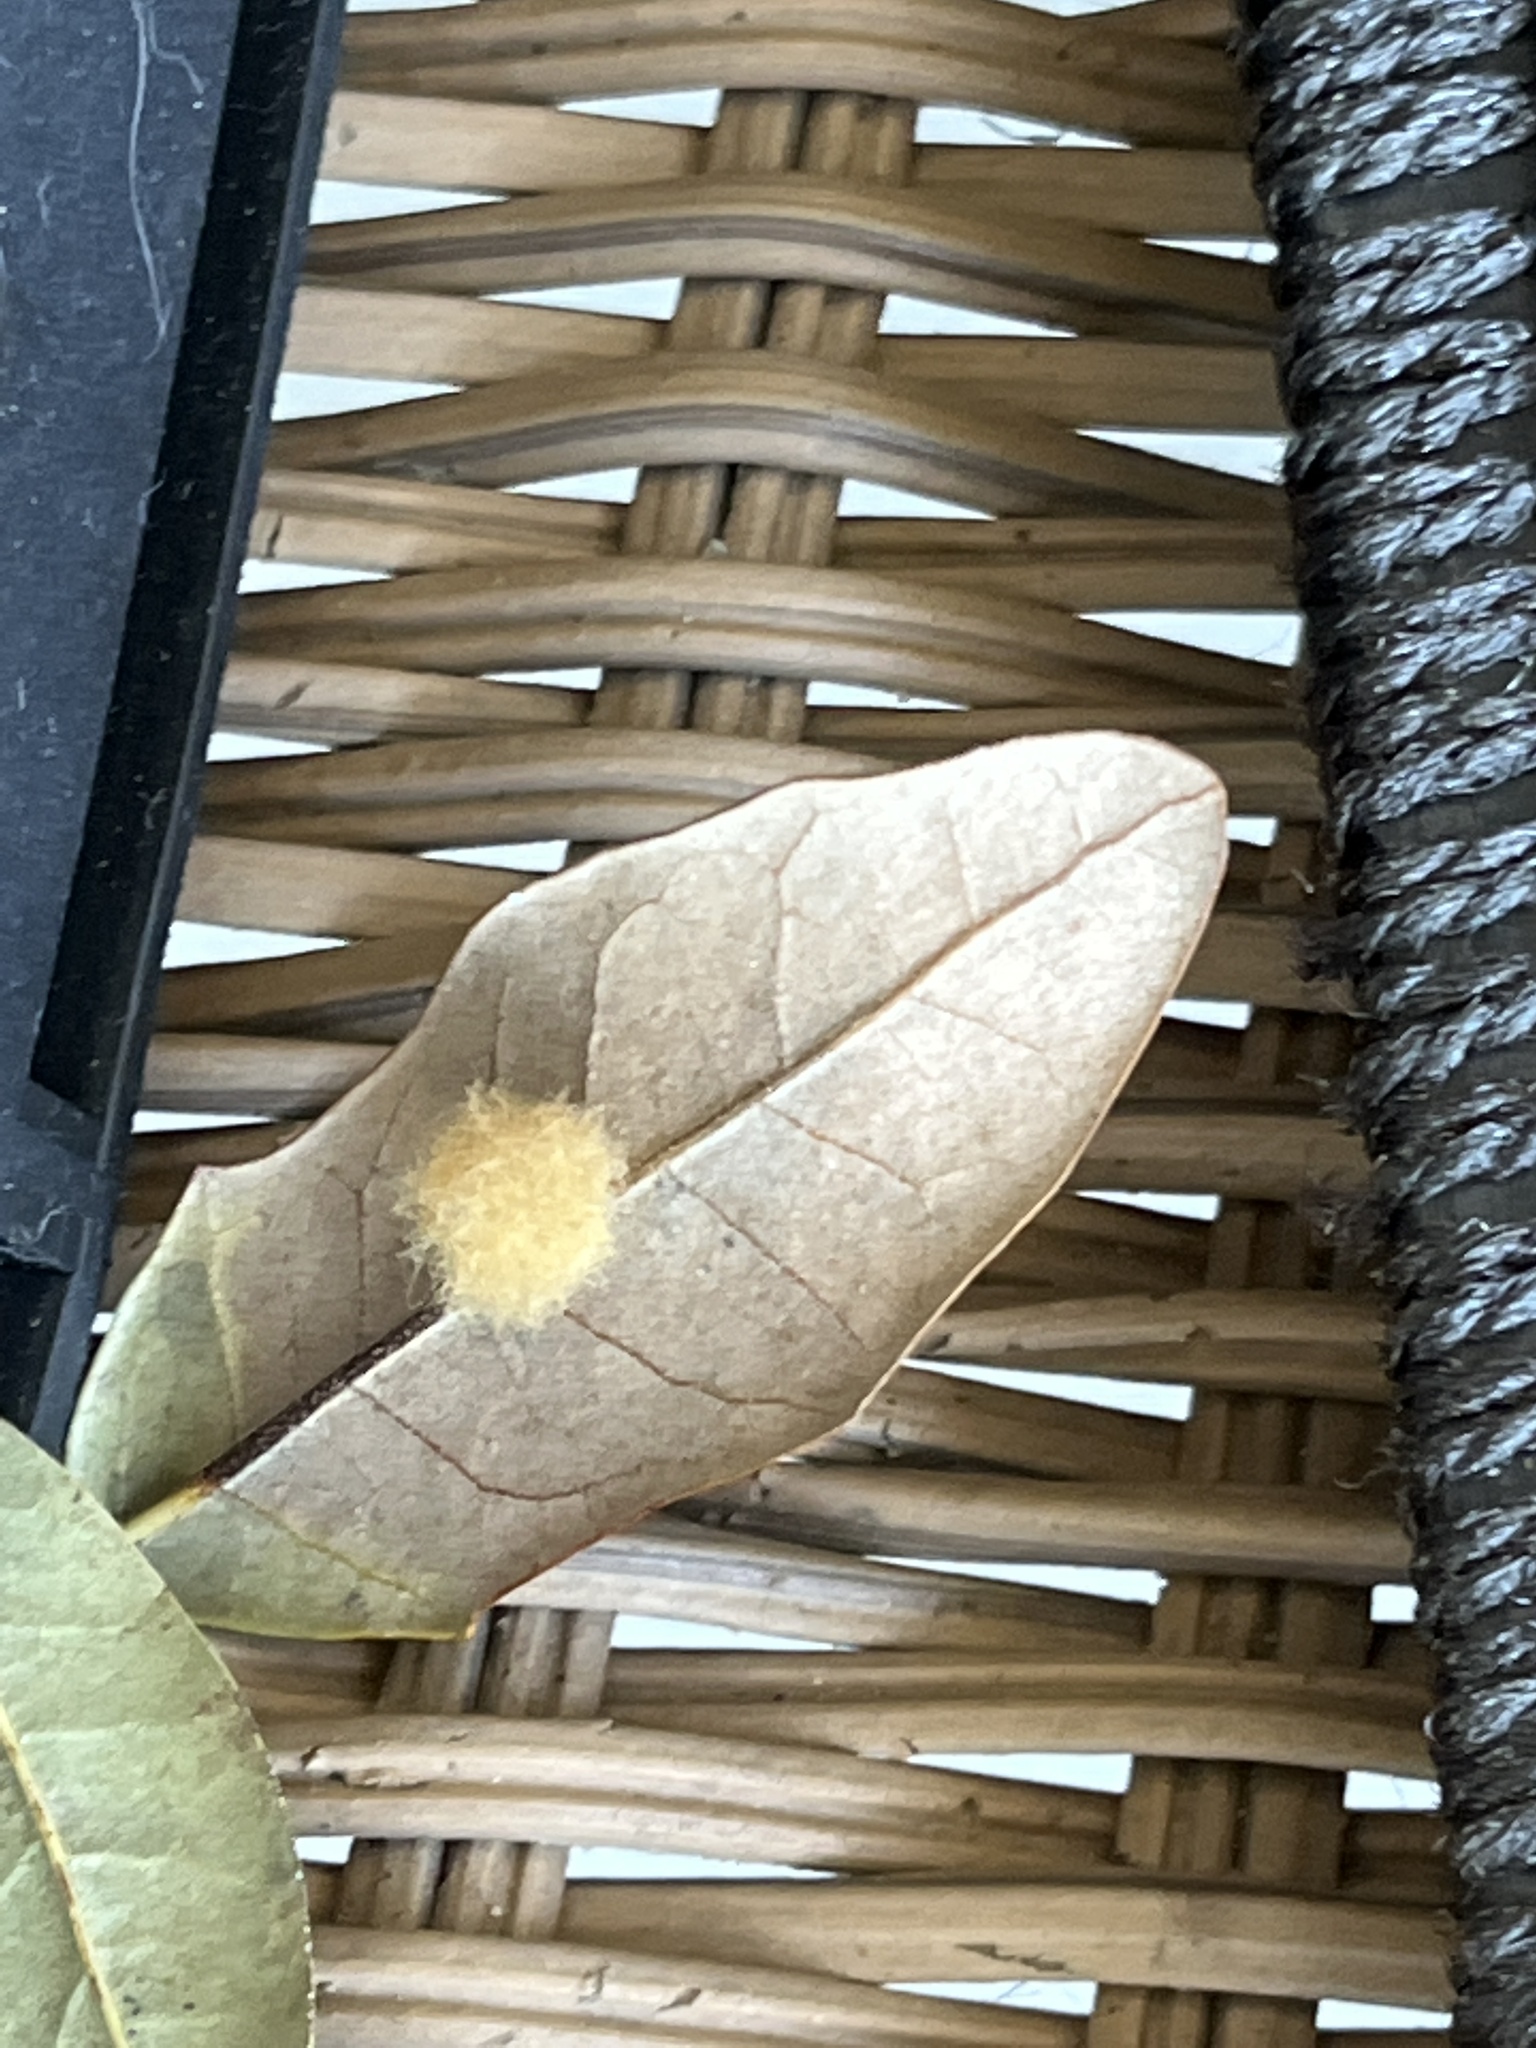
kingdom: Animalia
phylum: Arthropoda
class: Insecta
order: Hymenoptera
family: Cynipidae
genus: Andricus
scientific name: Andricus Druon quercuslanigerum
